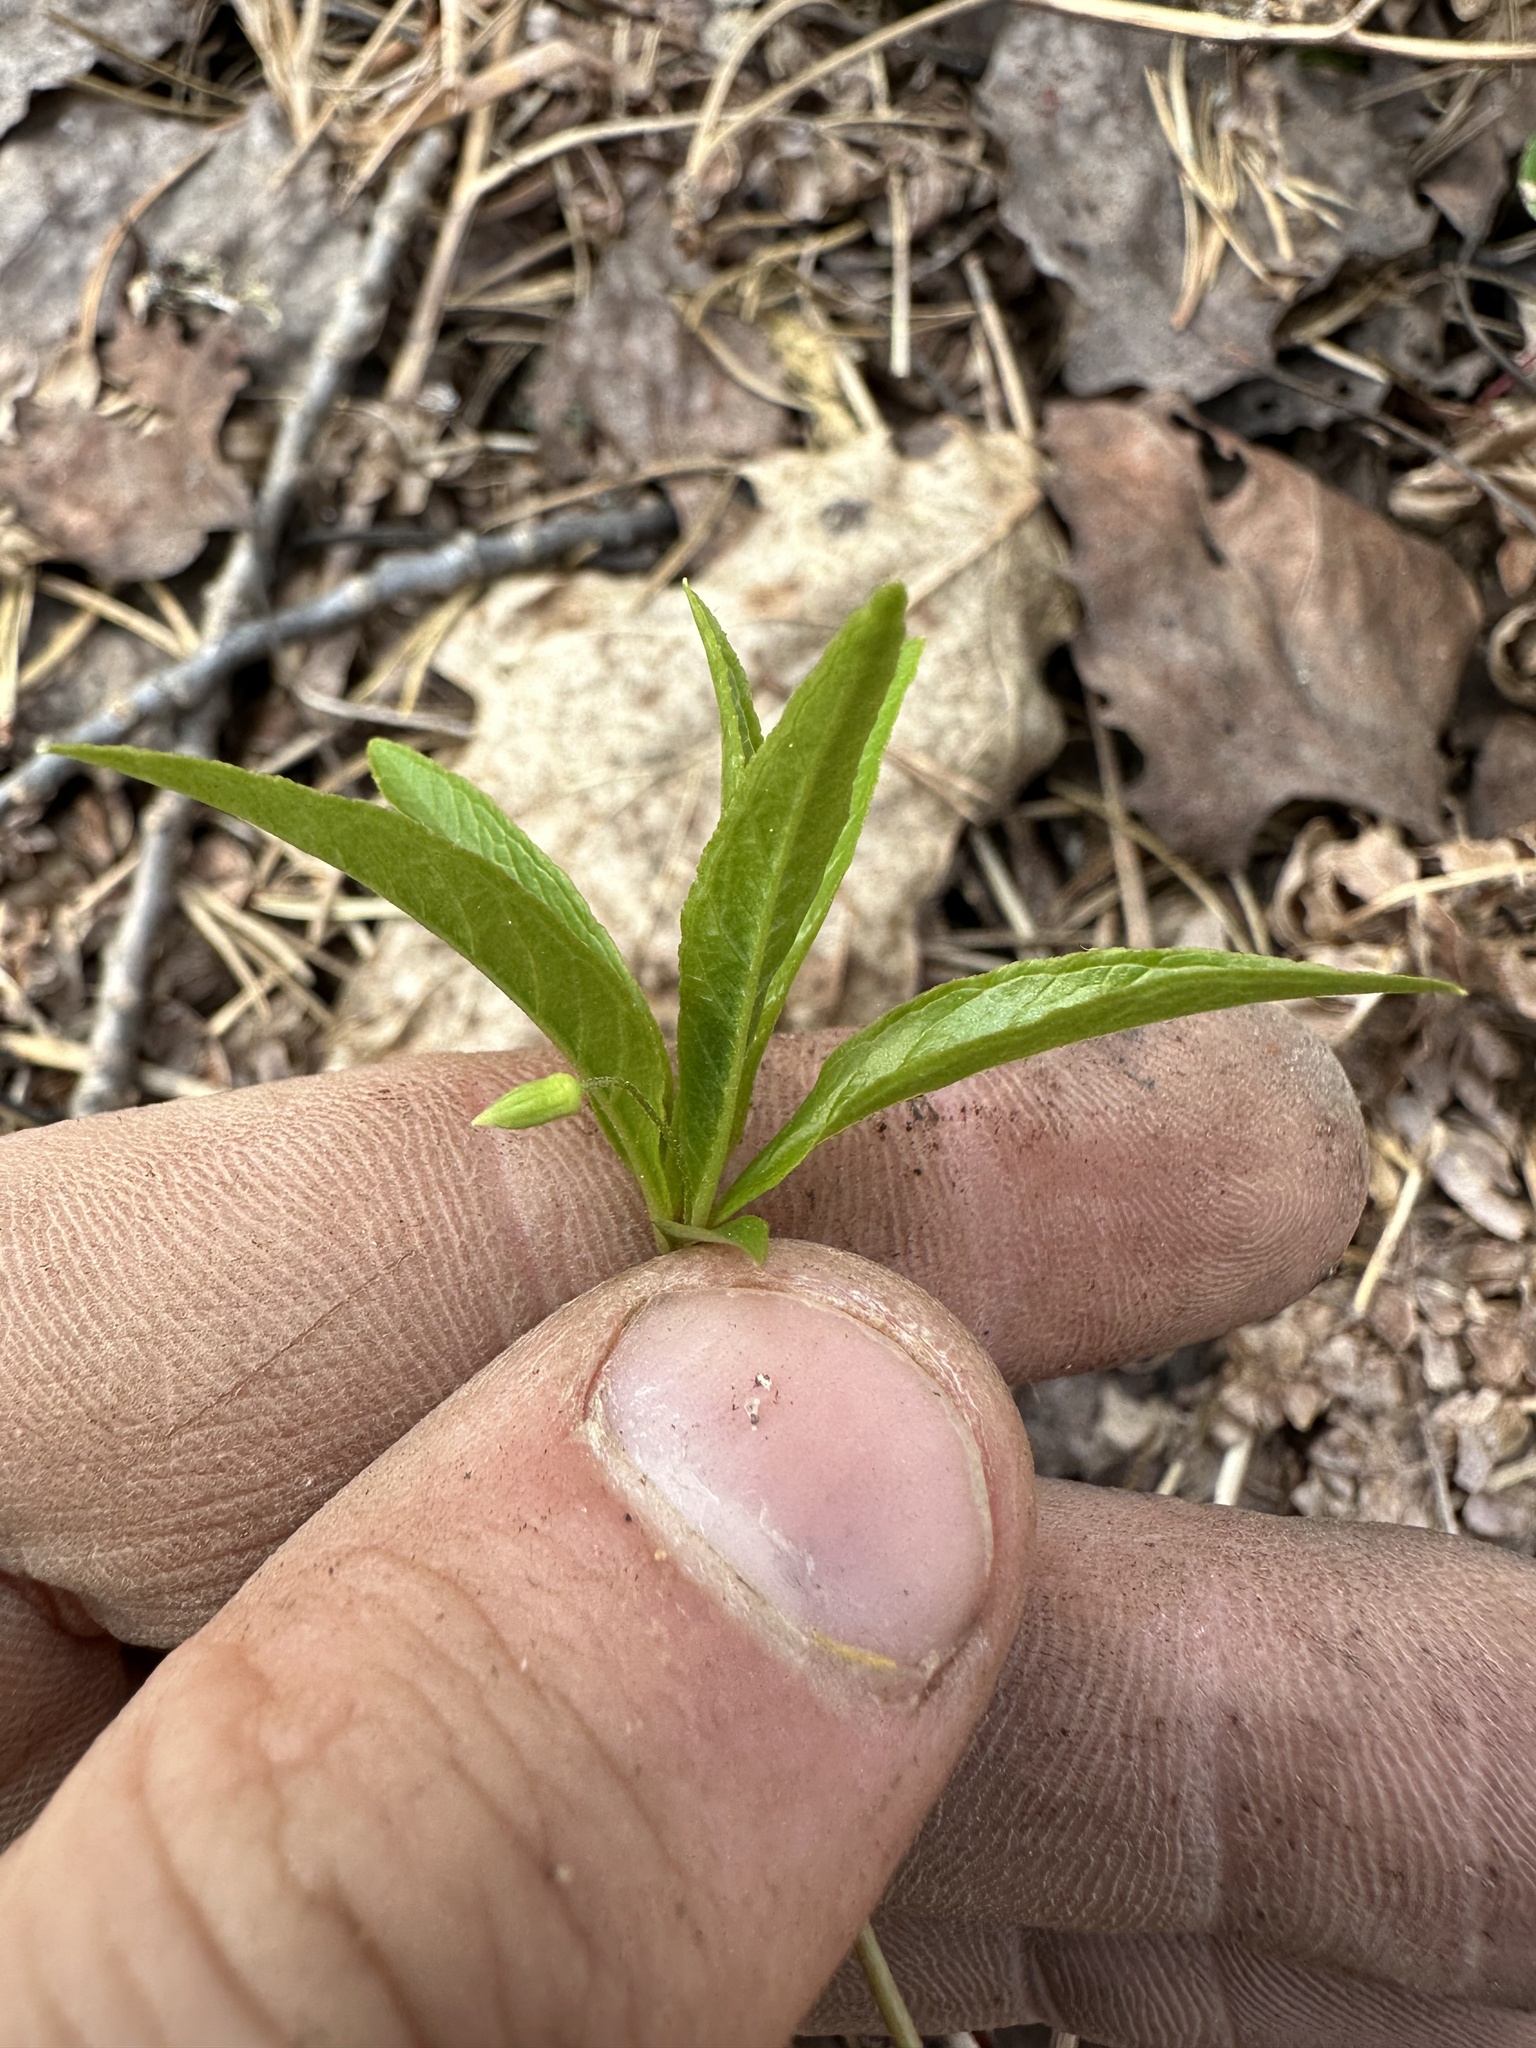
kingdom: Plantae
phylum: Tracheophyta
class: Magnoliopsida
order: Ericales
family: Primulaceae
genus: Lysimachia
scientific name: Lysimachia borealis
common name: American starflower
